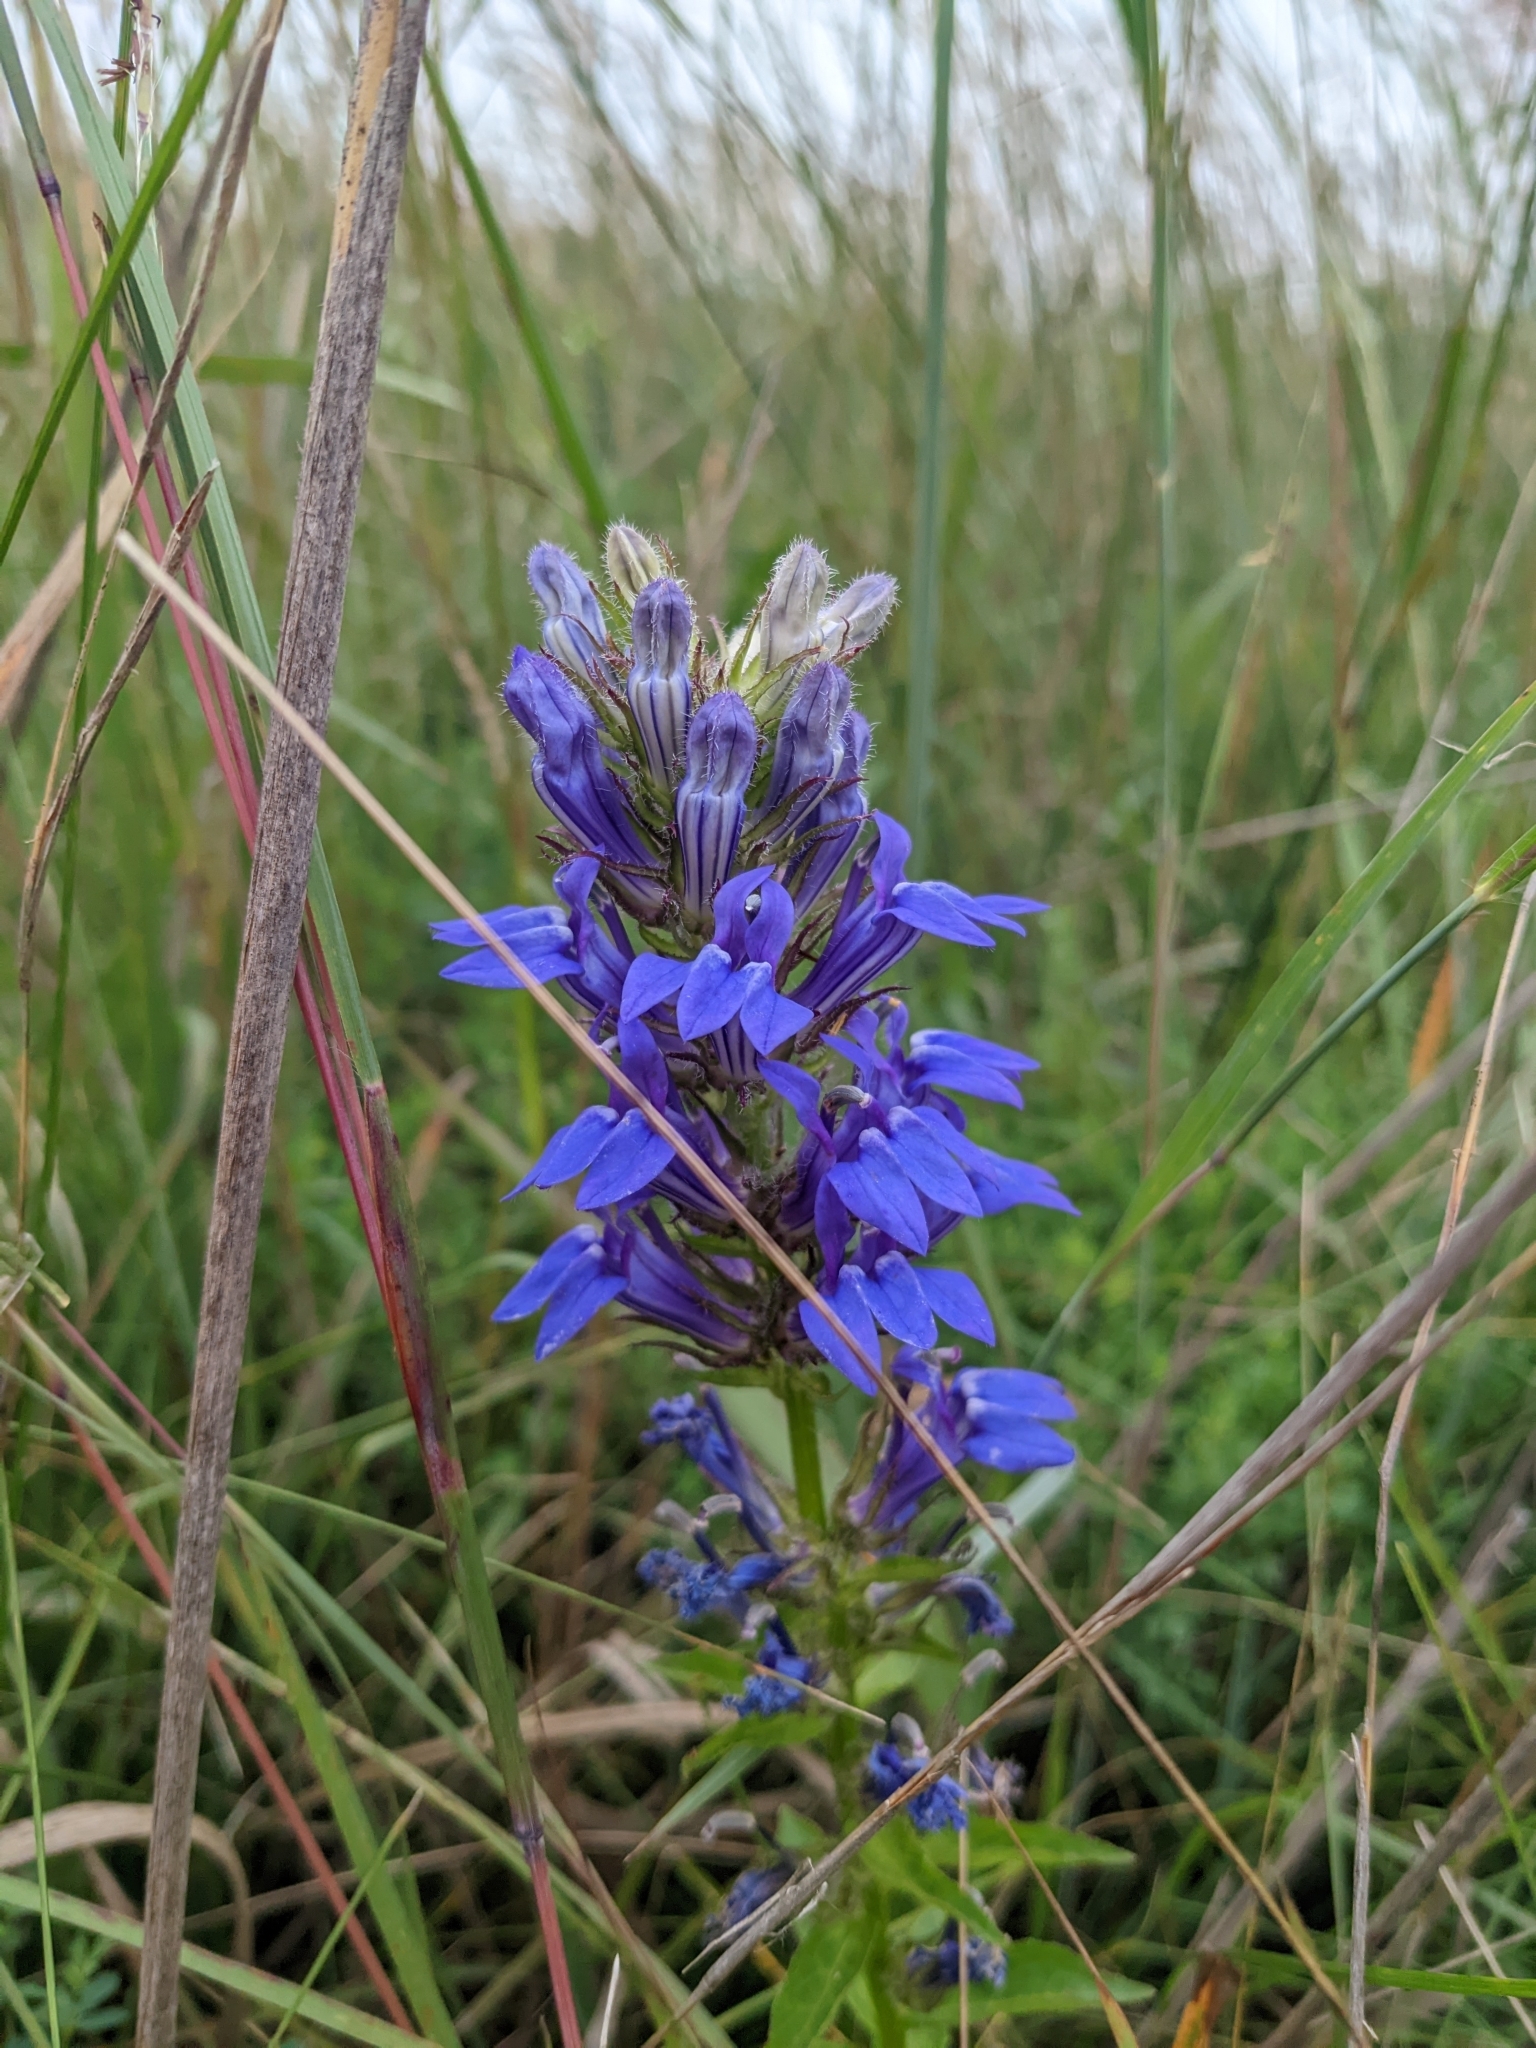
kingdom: Plantae
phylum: Tracheophyta
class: Magnoliopsida
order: Asterales
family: Campanulaceae
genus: Lobelia
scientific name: Lobelia siphilitica
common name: Great lobelia
